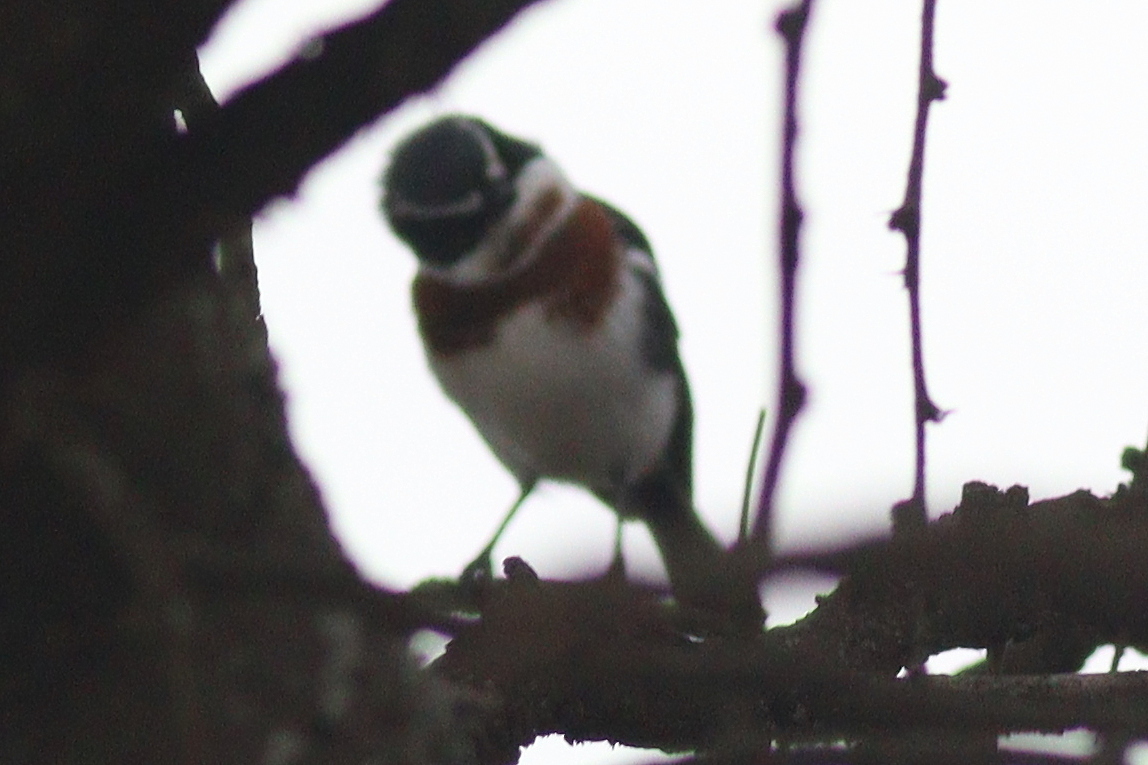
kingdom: Animalia
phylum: Chordata
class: Aves
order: Passeriformes
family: Platysteiridae
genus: Batis
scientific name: Batis molitor
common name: Chinspot batis
